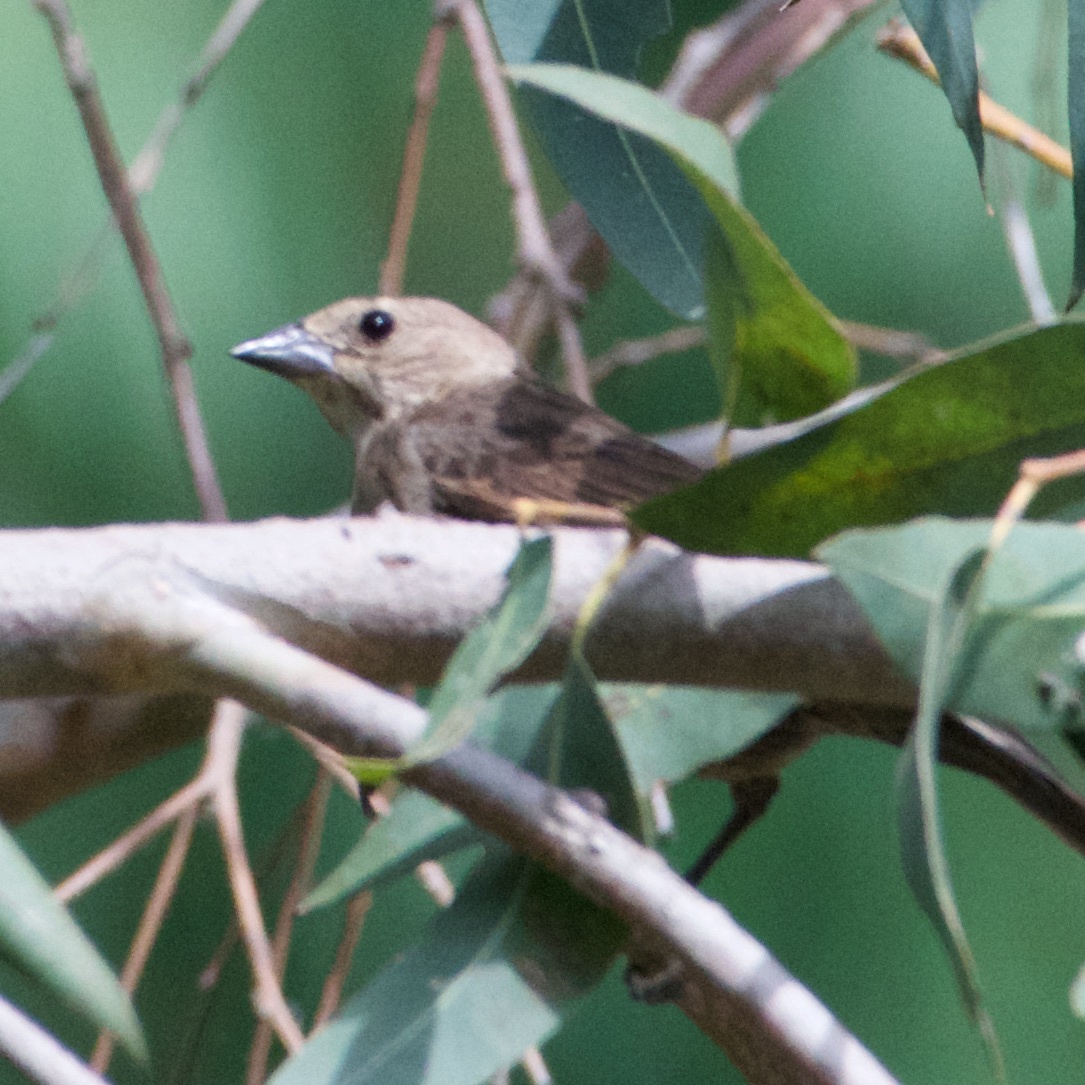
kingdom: Animalia
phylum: Chordata
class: Aves
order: Passeriformes
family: Icteridae
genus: Molothrus
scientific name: Molothrus ater
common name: Brown-headed cowbird
